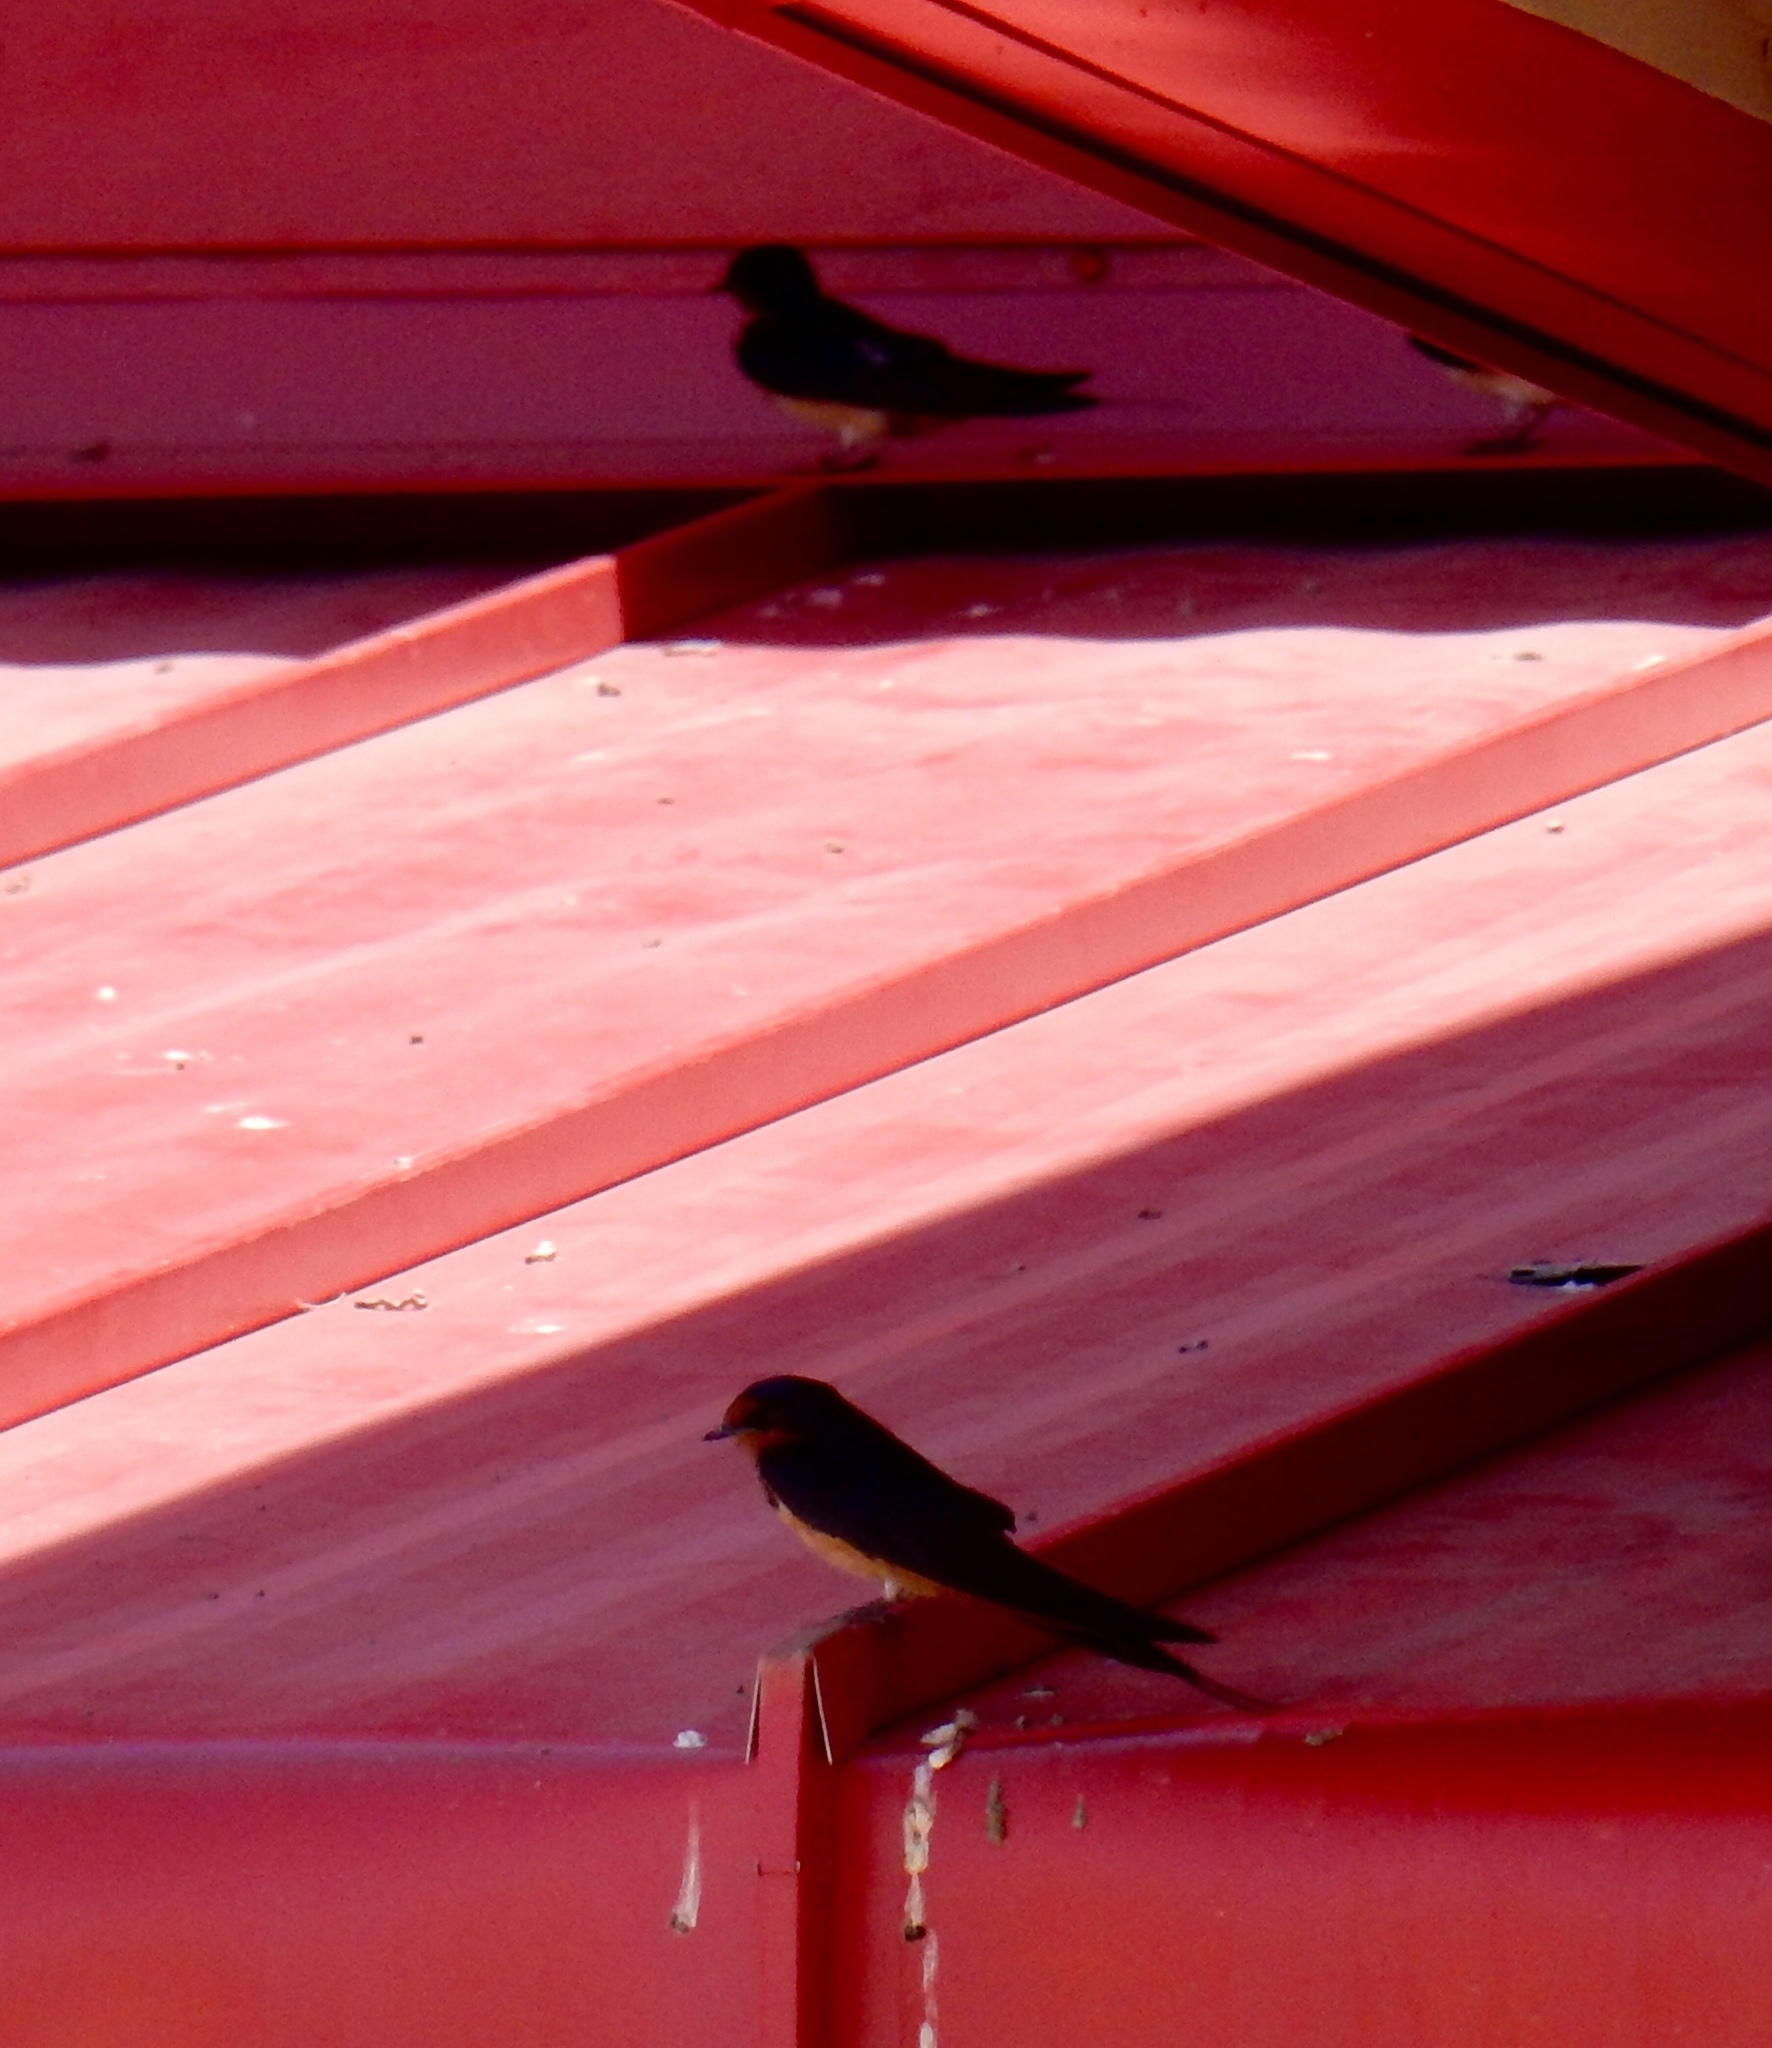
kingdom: Animalia
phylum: Chordata
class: Aves
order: Passeriformes
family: Hirundinidae
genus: Hirundo
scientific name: Hirundo rustica
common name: Barn swallow
